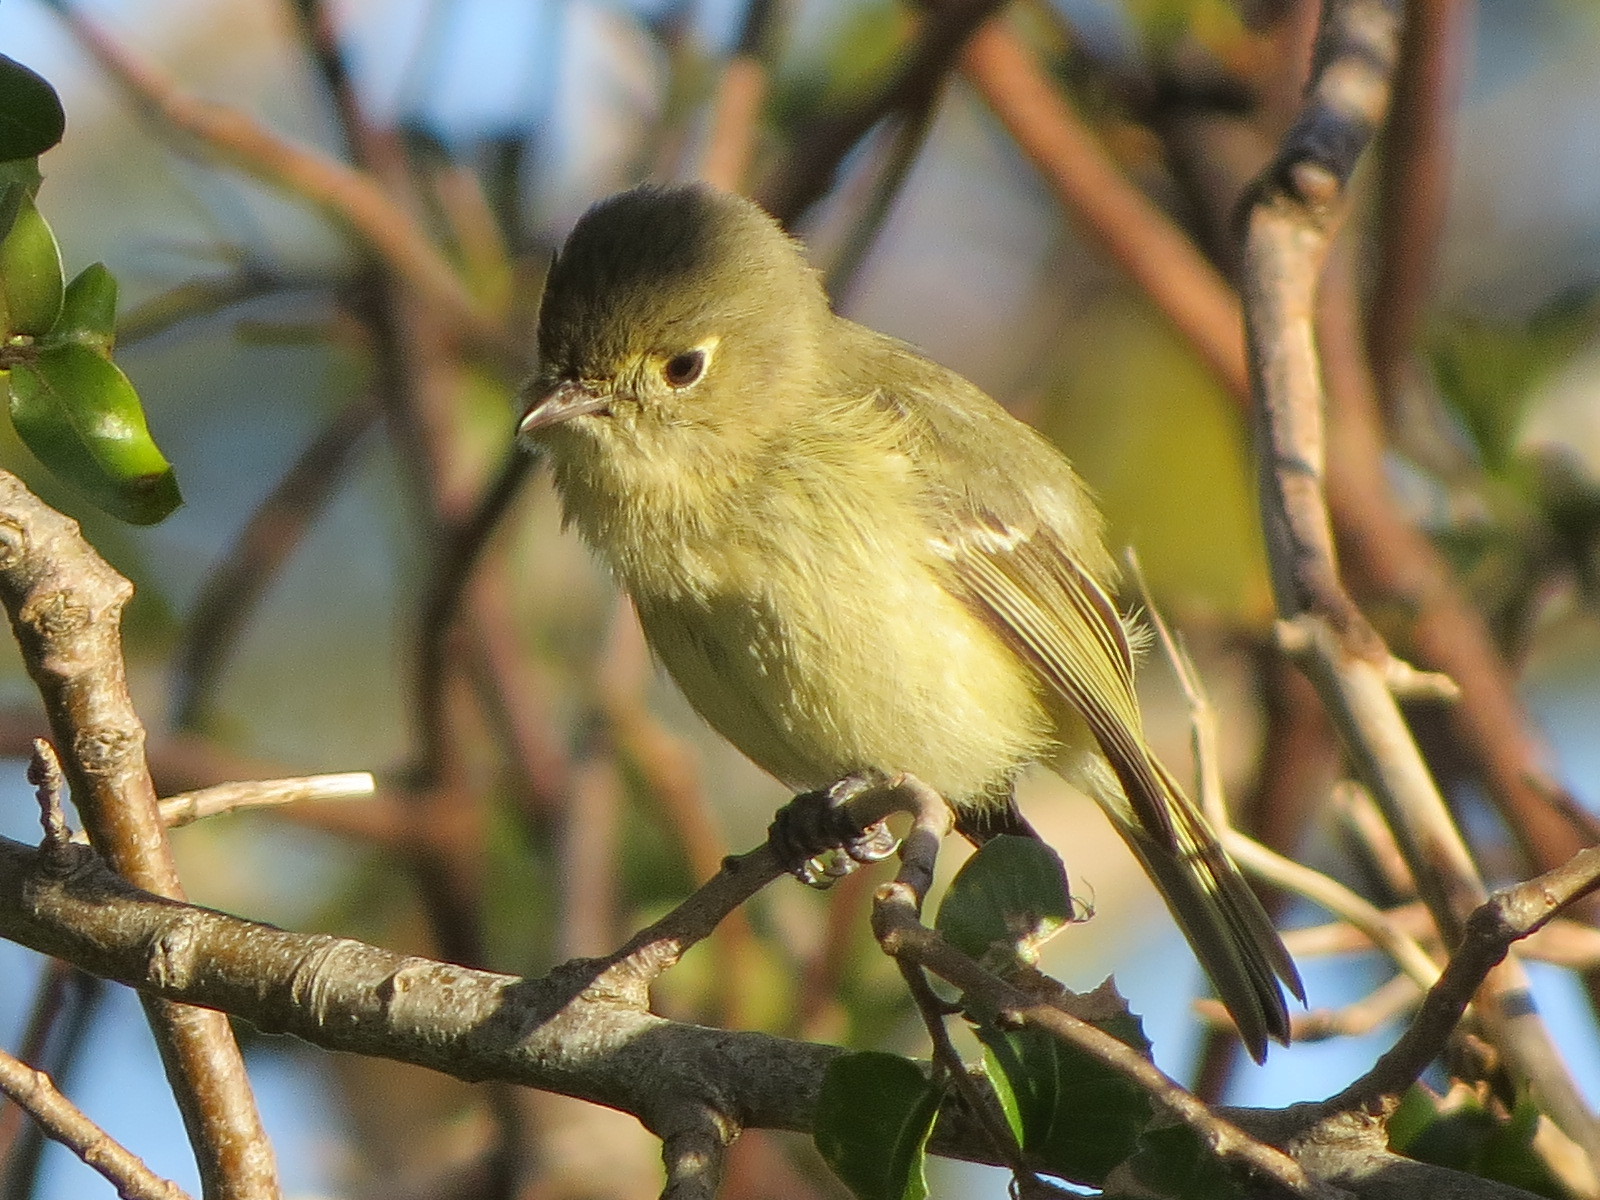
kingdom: Animalia
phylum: Chordata
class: Aves
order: Passeriformes
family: Tyrannidae
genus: Empidonax
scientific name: Empidonax difficilis
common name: Pacific-slope flycatcher
